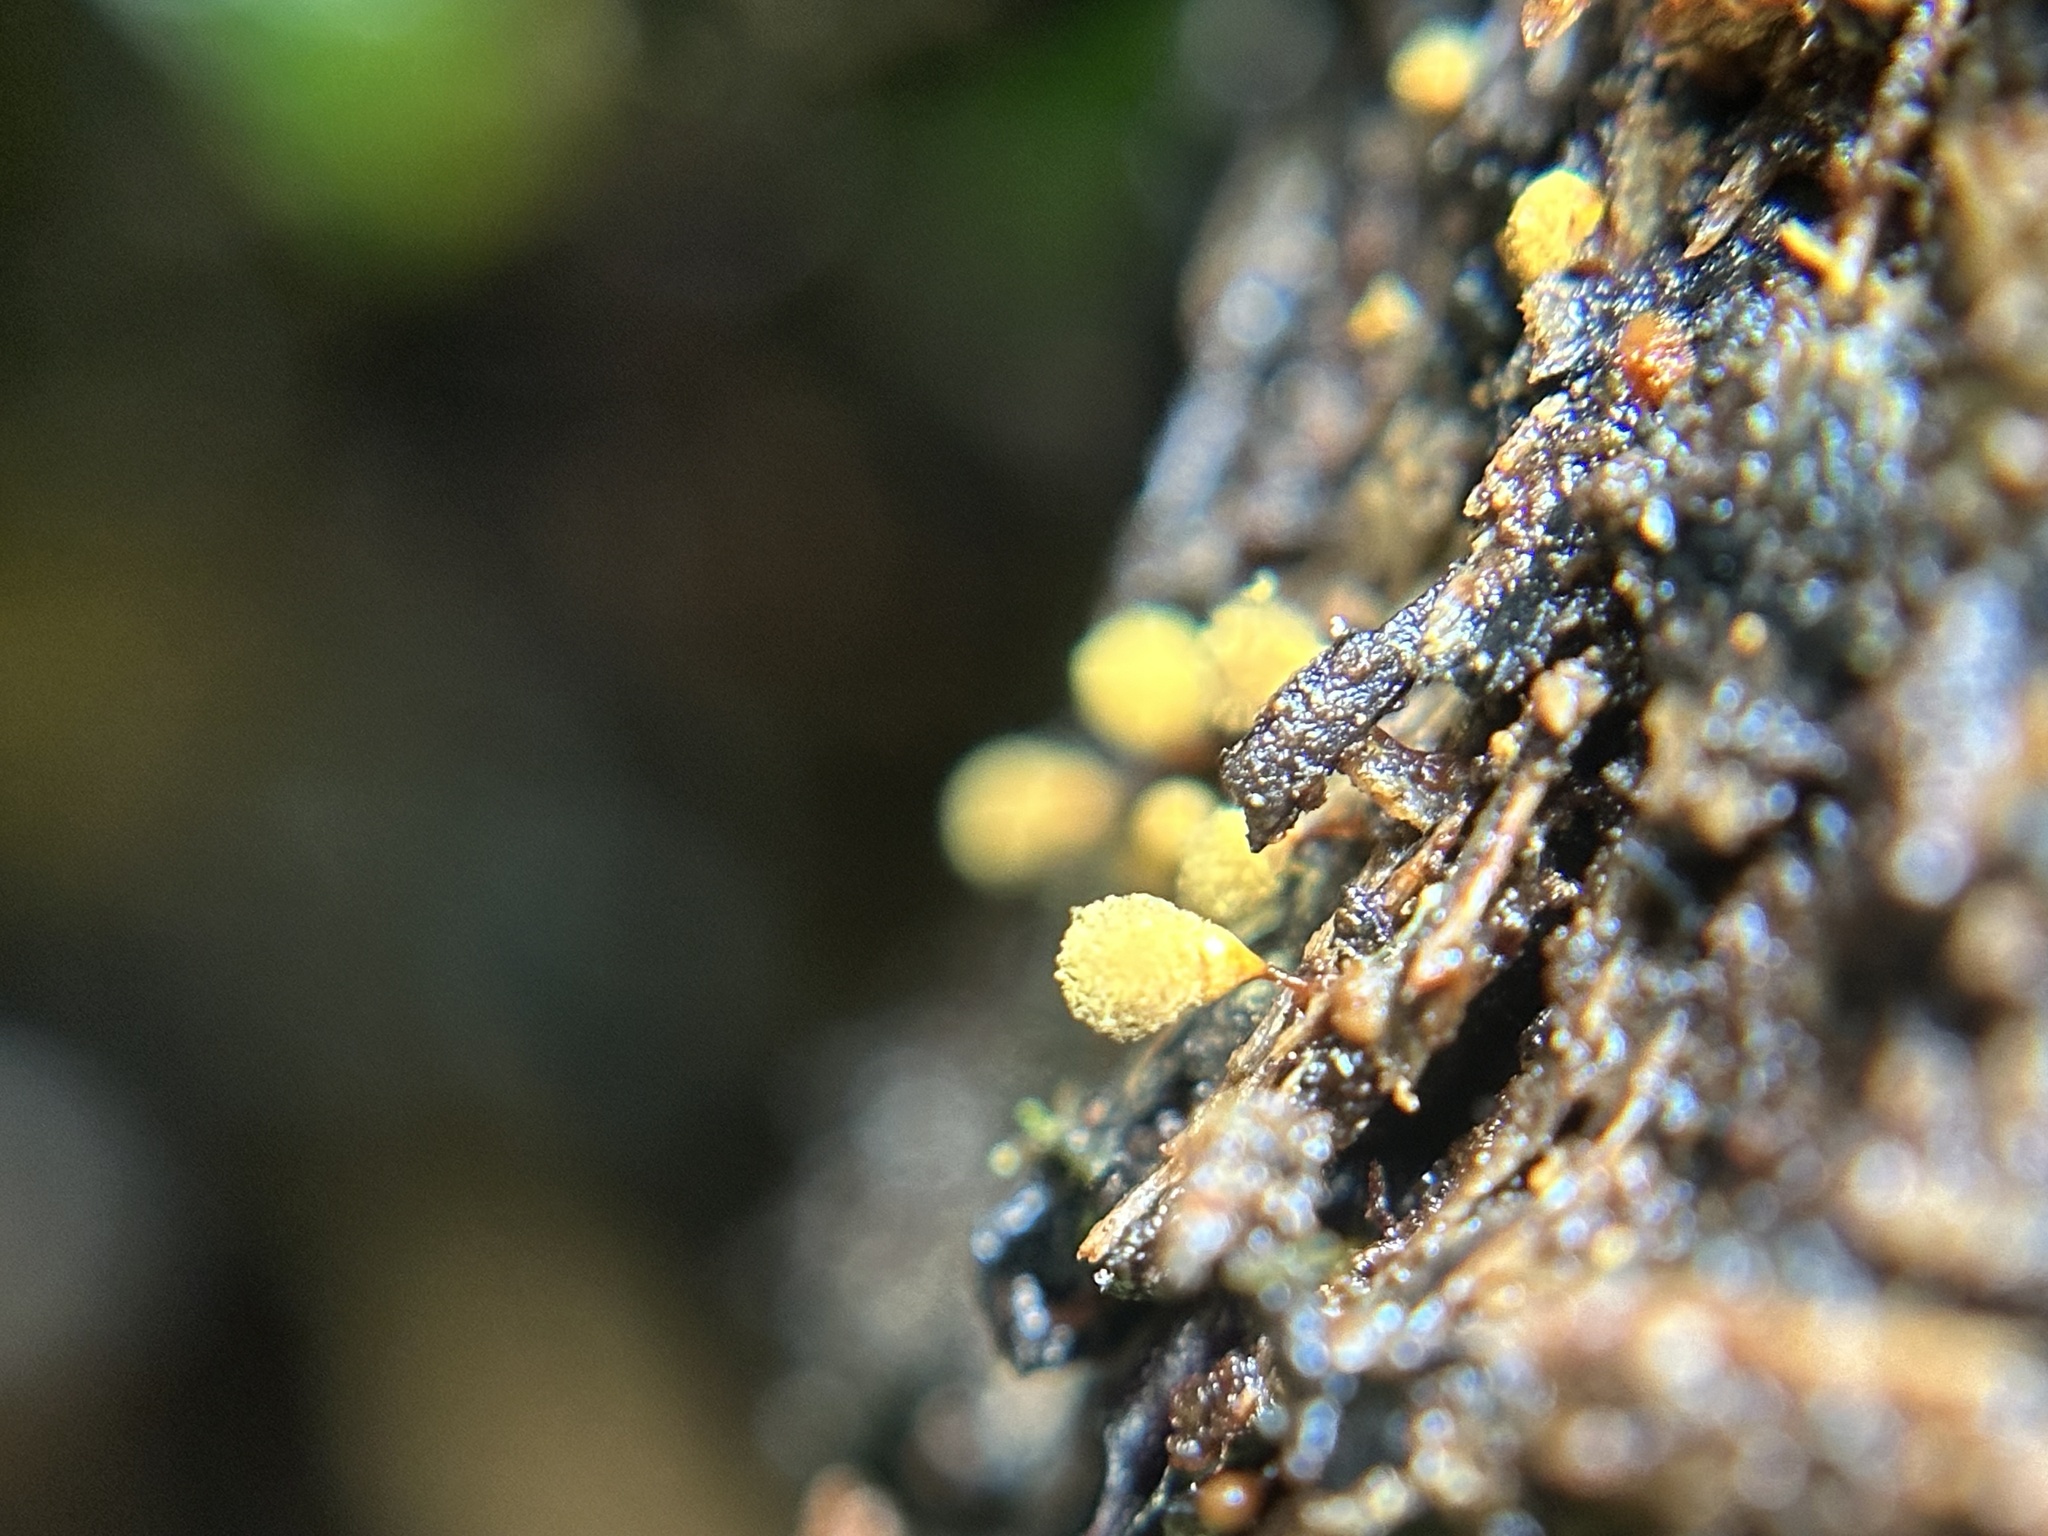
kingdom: Protozoa
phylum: Mycetozoa
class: Myxomycetes
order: Trichiales
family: Arcyriaceae
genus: Hemitrichia
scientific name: Hemitrichia calyculata
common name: Push pin slime mold
